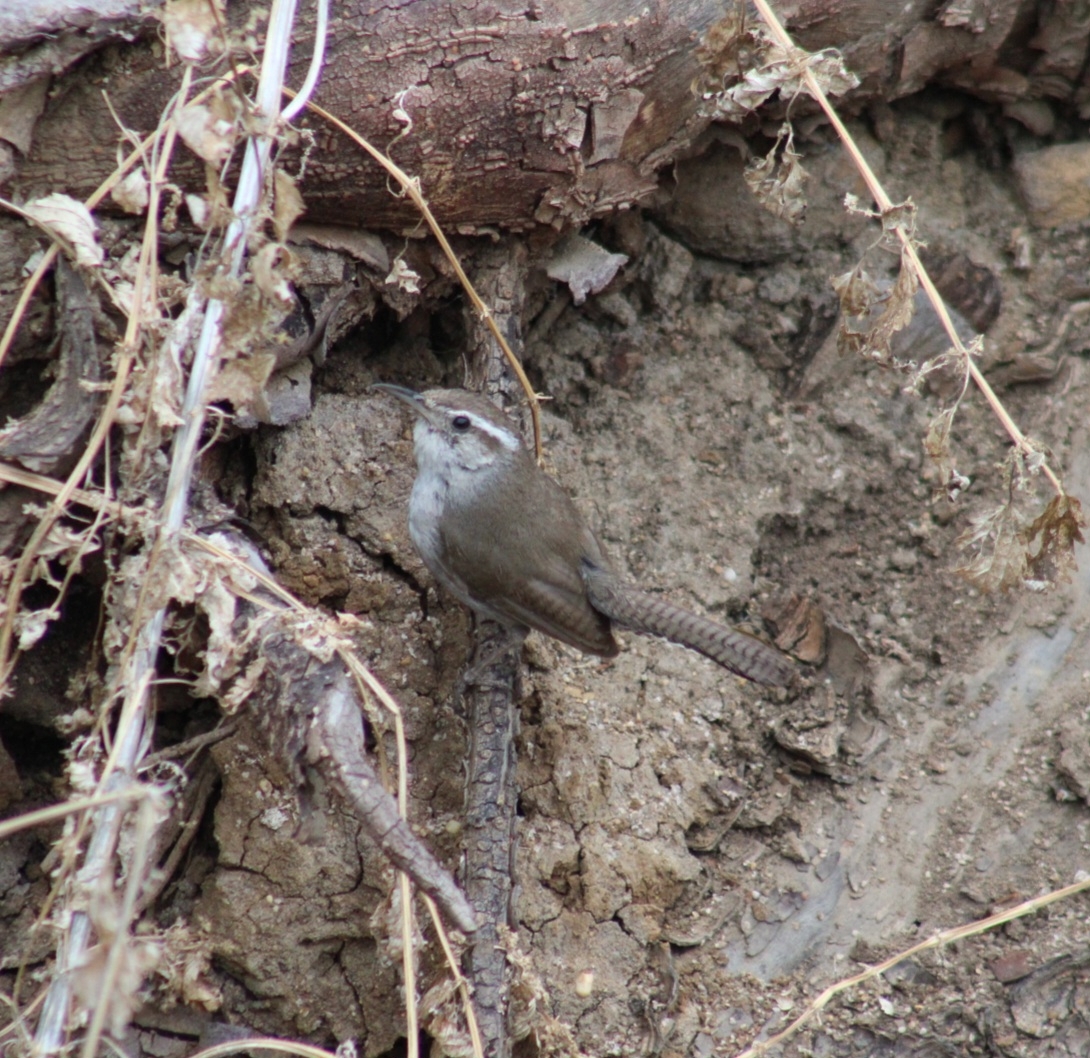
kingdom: Animalia
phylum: Chordata
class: Aves
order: Passeriformes
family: Troglodytidae
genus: Thryomanes
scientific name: Thryomanes bewickii
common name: Bewick's wren
